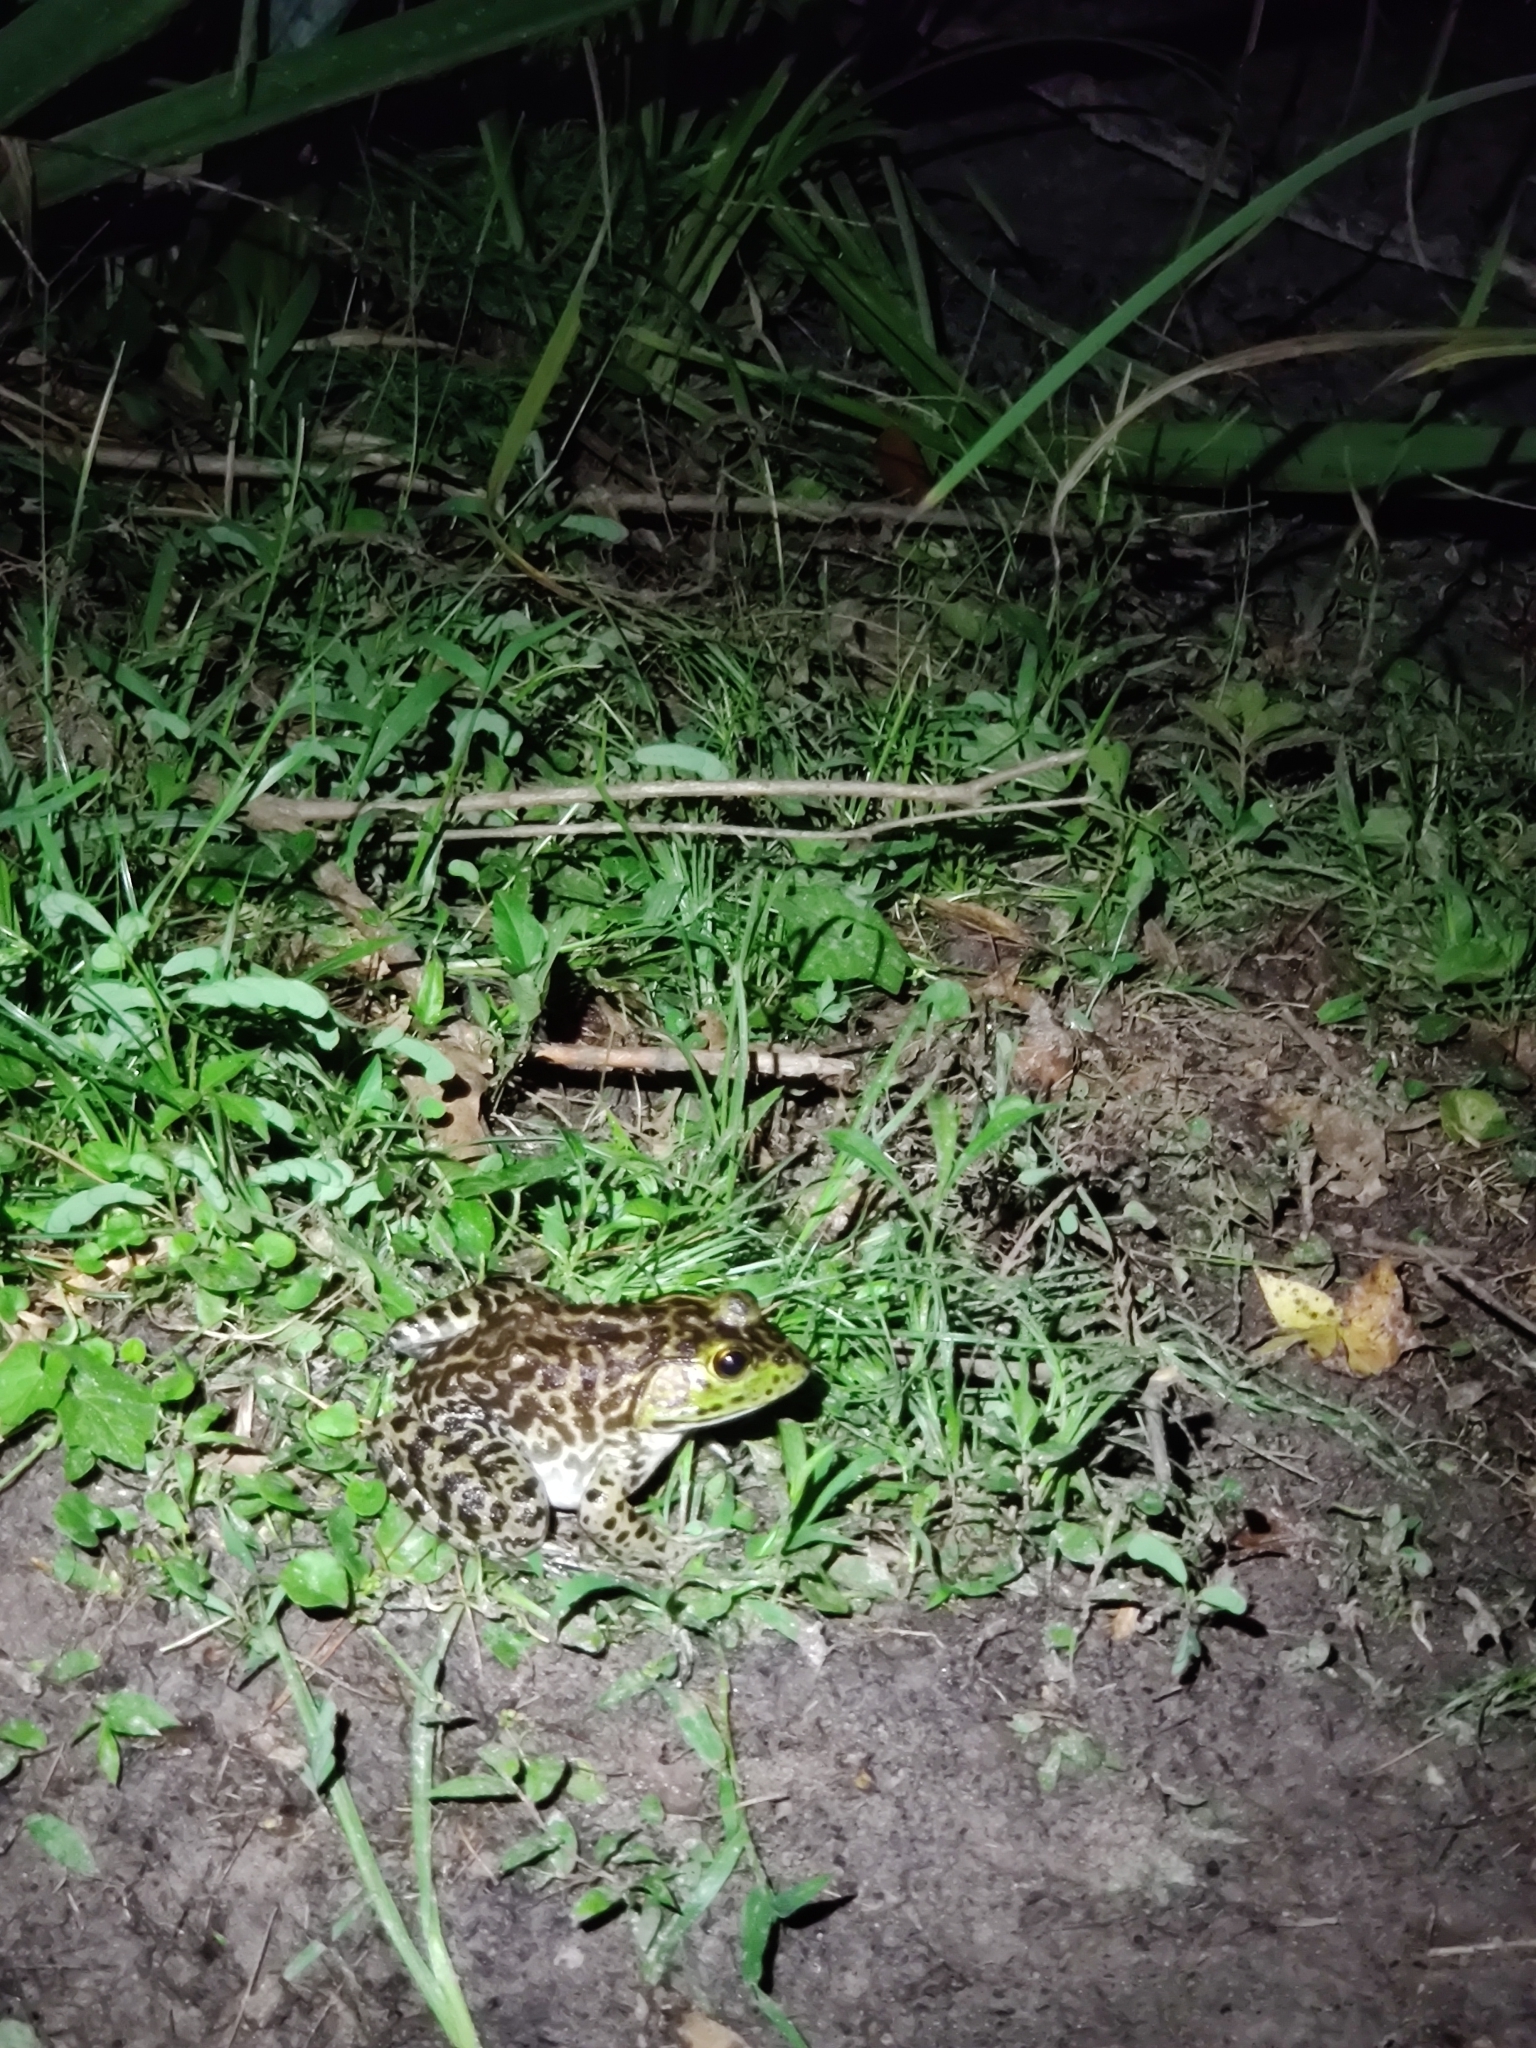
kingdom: Animalia
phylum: Chordata
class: Amphibia
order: Anura
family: Ranidae
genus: Lithobates
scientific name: Lithobates catesbeianus
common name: American bullfrog
